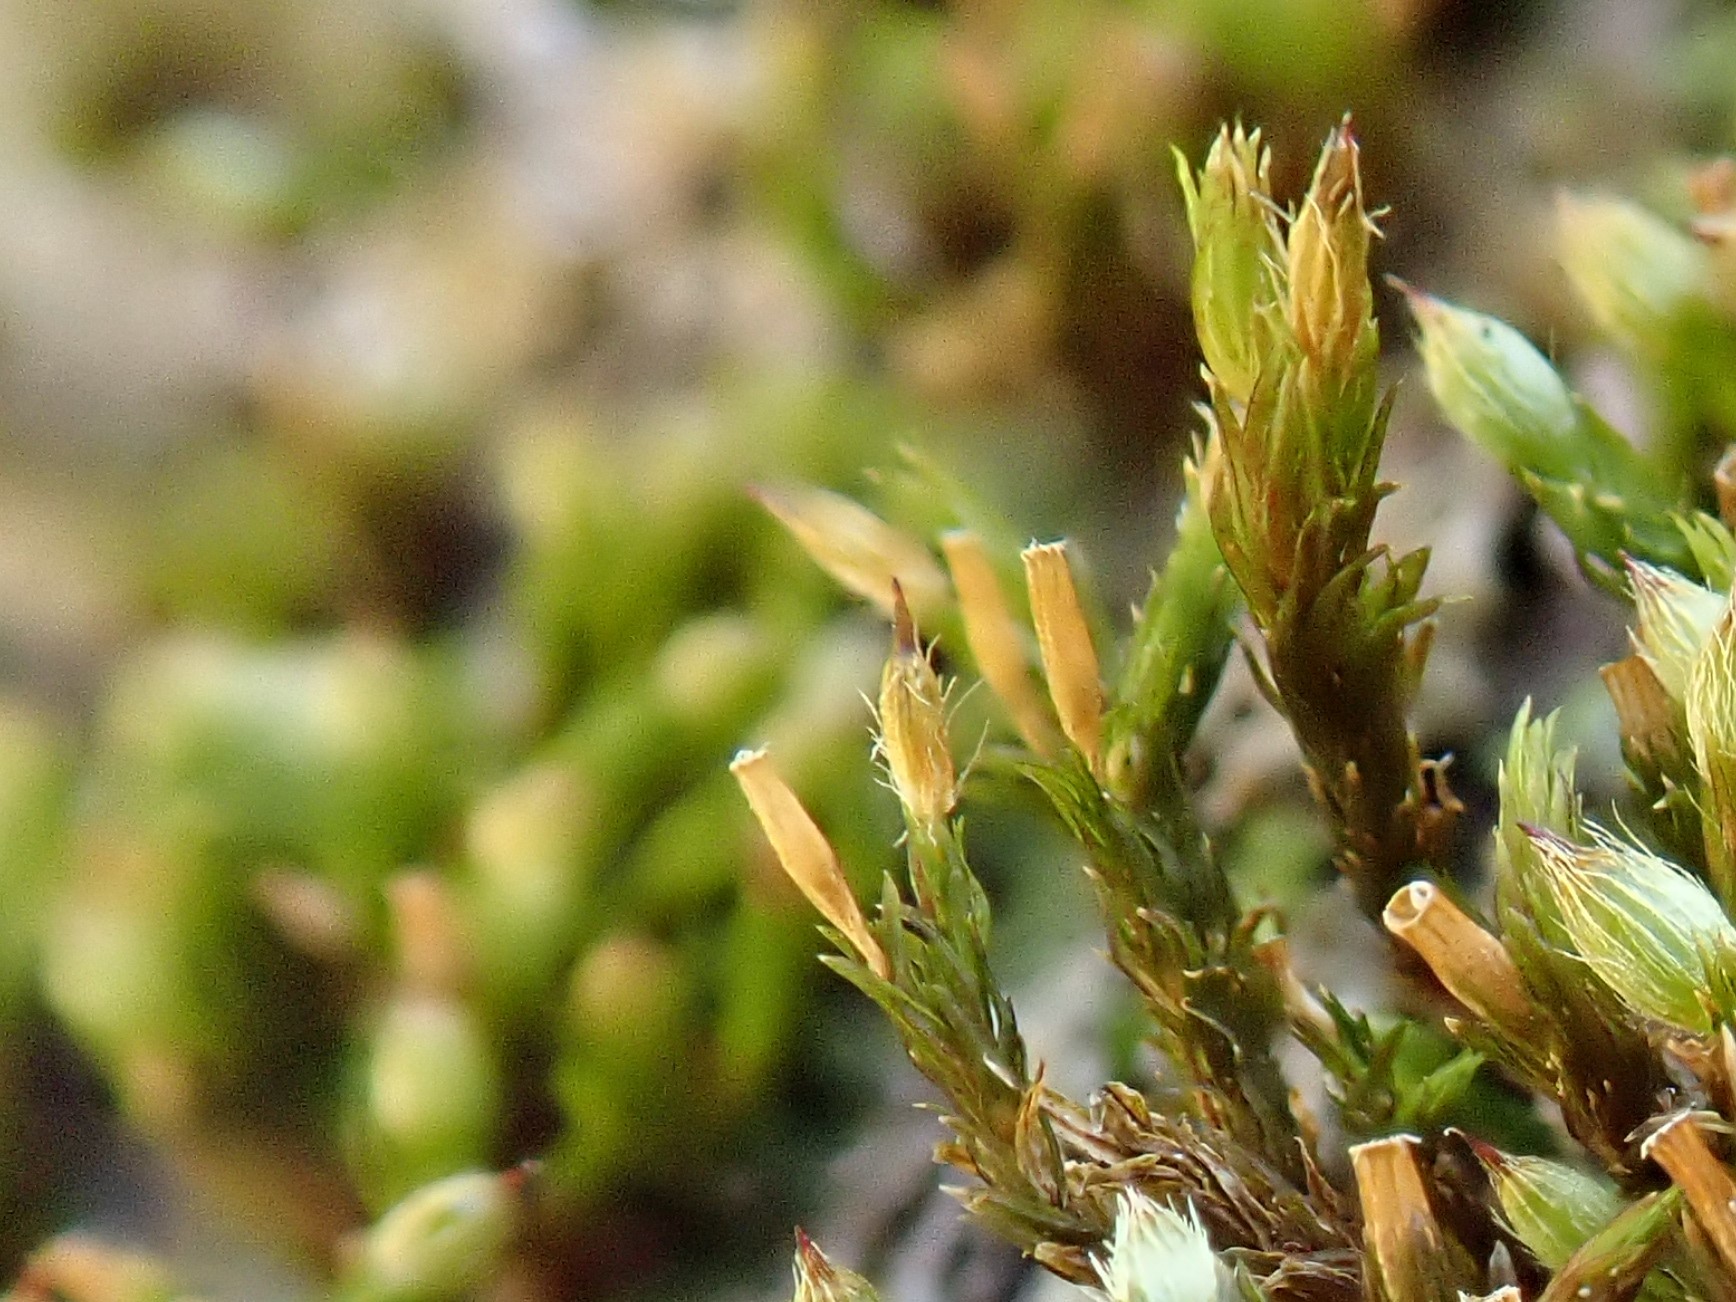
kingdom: Plantae
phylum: Bryophyta
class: Bryopsida
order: Orthotrichales
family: Orthotrichaceae
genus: Lewinskya
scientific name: Lewinskya speciosa
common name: Showy bristle moss
